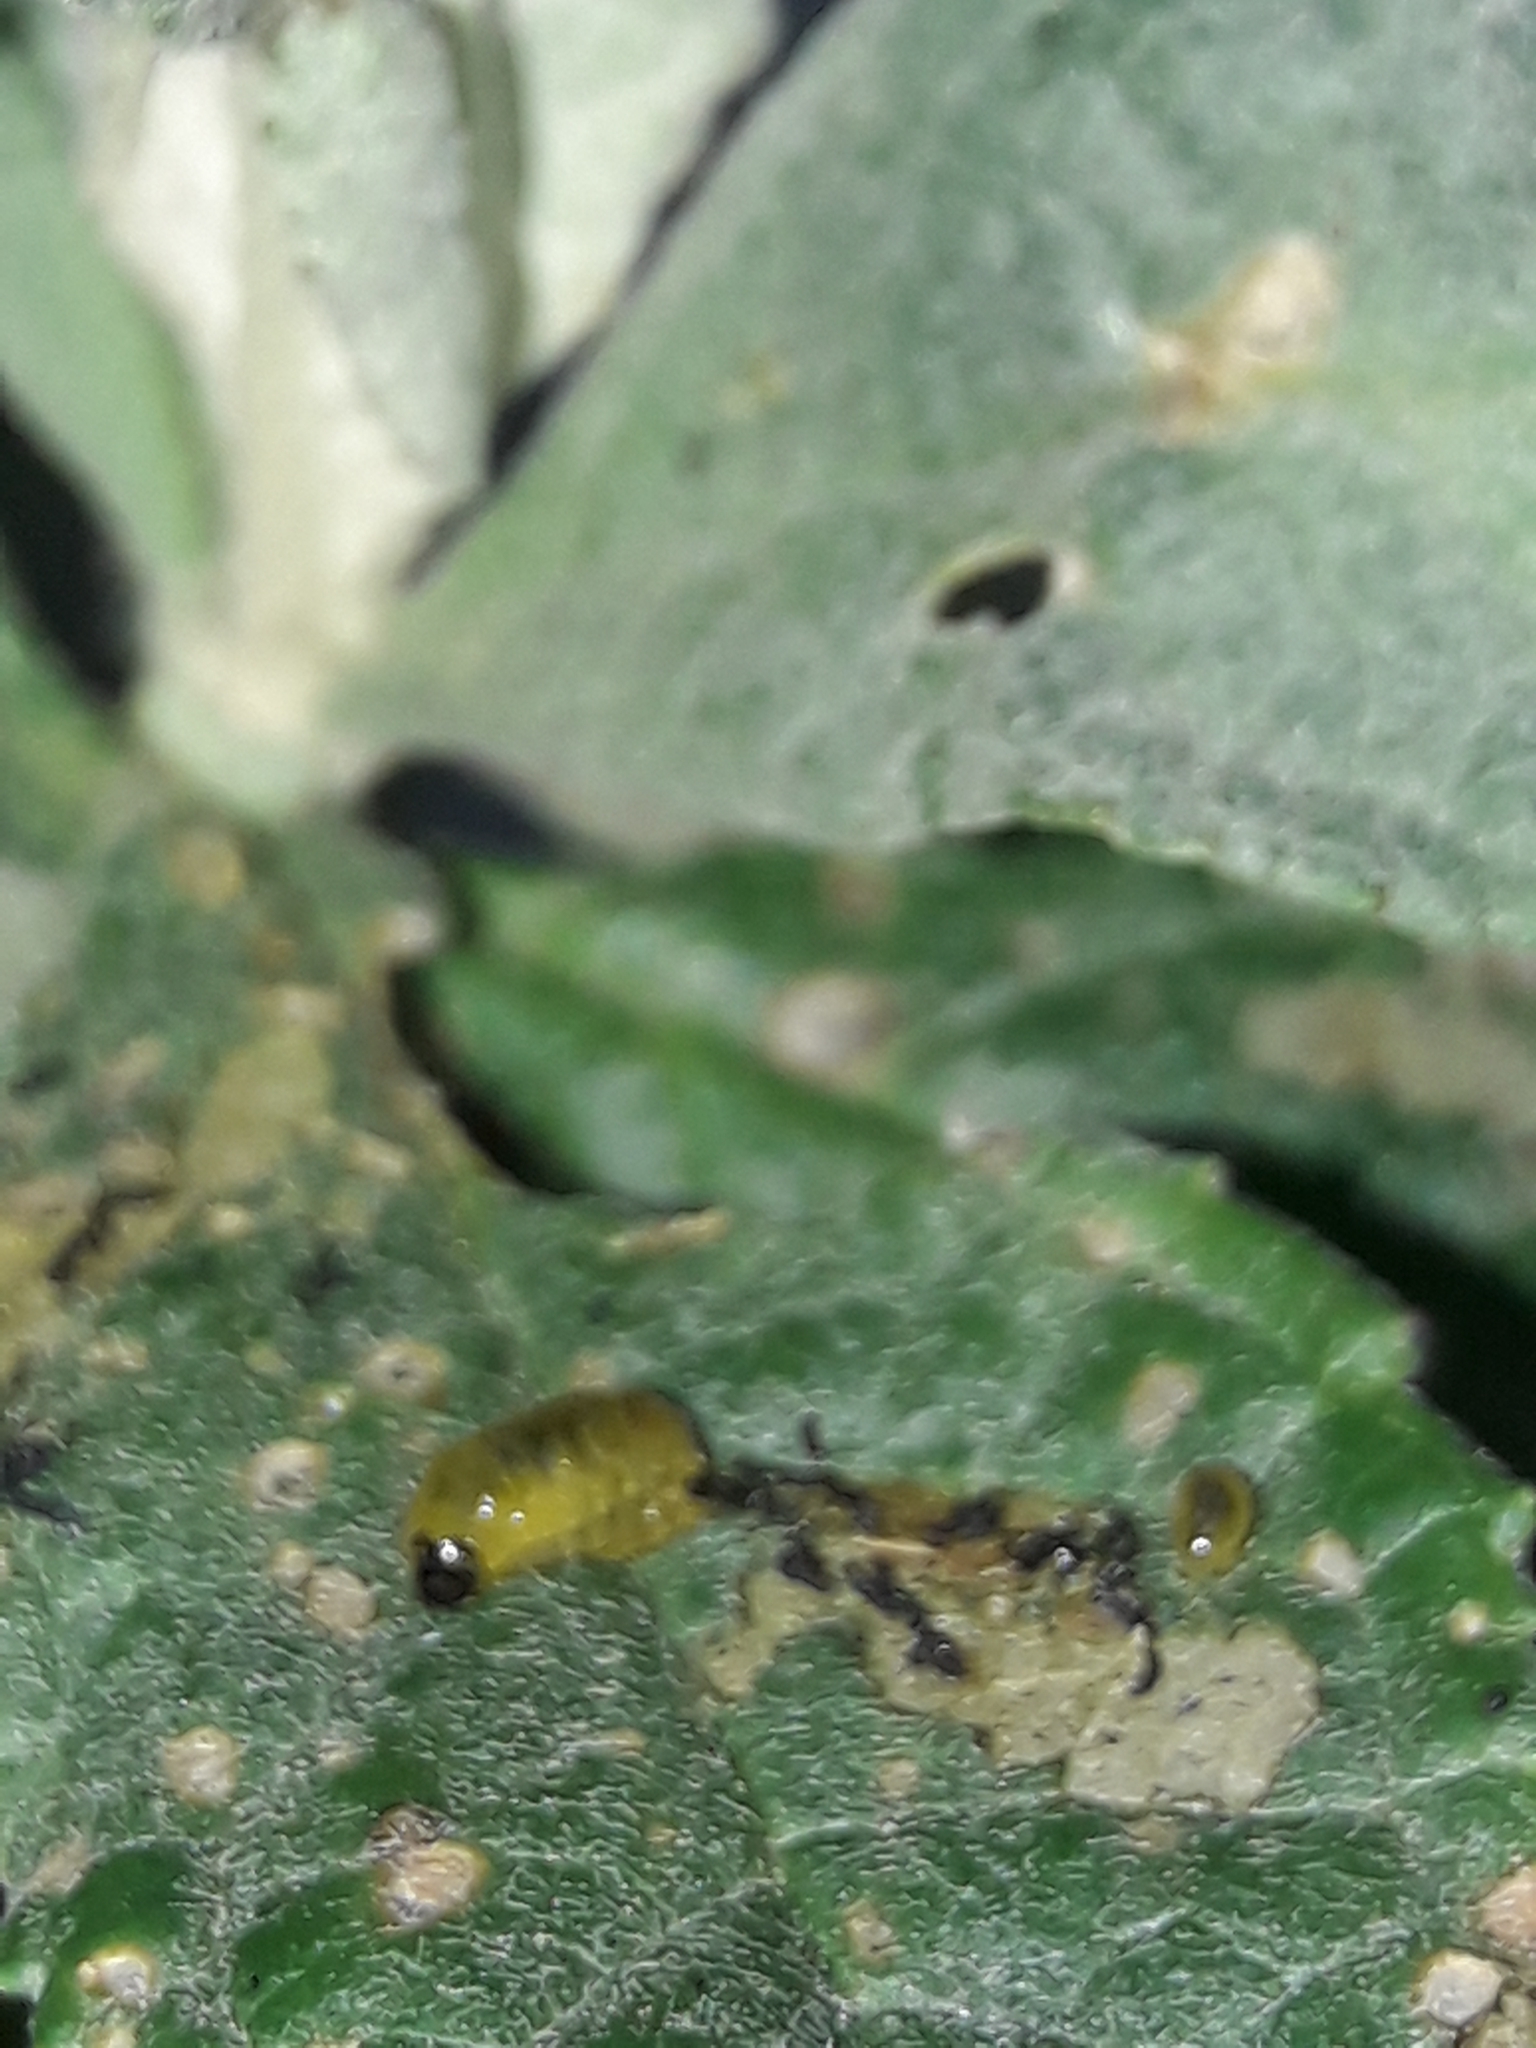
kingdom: Animalia
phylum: Arthropoda
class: Insecta
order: Coleoptera
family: Curculionidae
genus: Cleopus
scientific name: Cleopus japonicus
